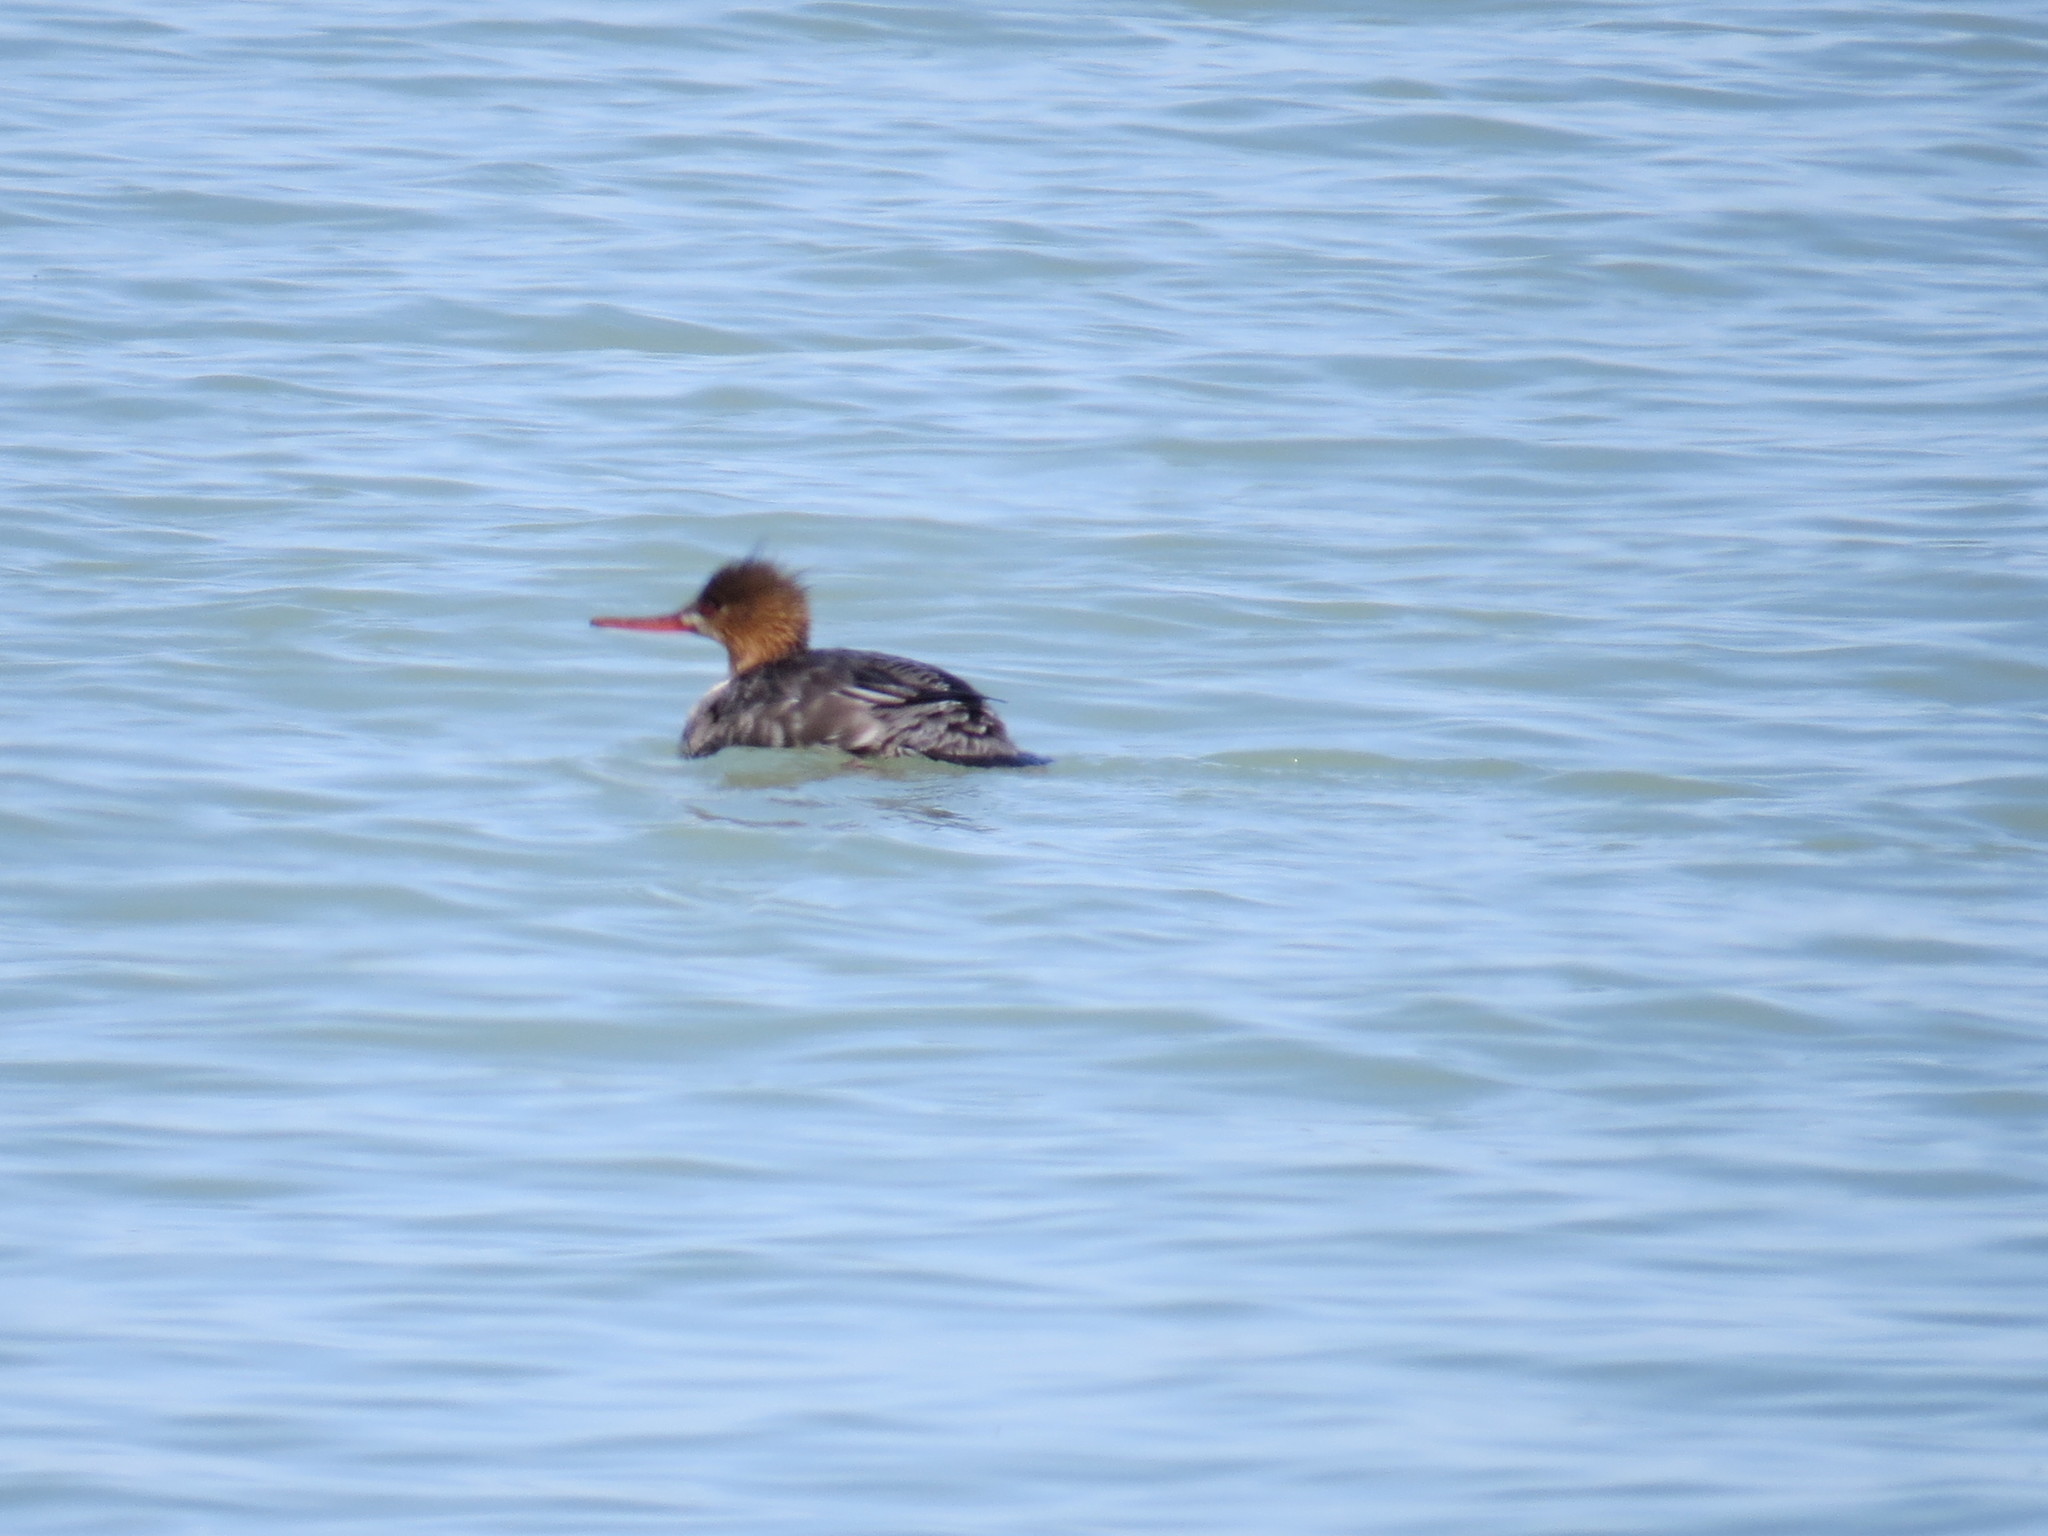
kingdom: Animalia
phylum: Chordata
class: Aves
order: Anseriformes
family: Anatidae
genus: Mergus
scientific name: Mergus serrator
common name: Red-breasted merganser
